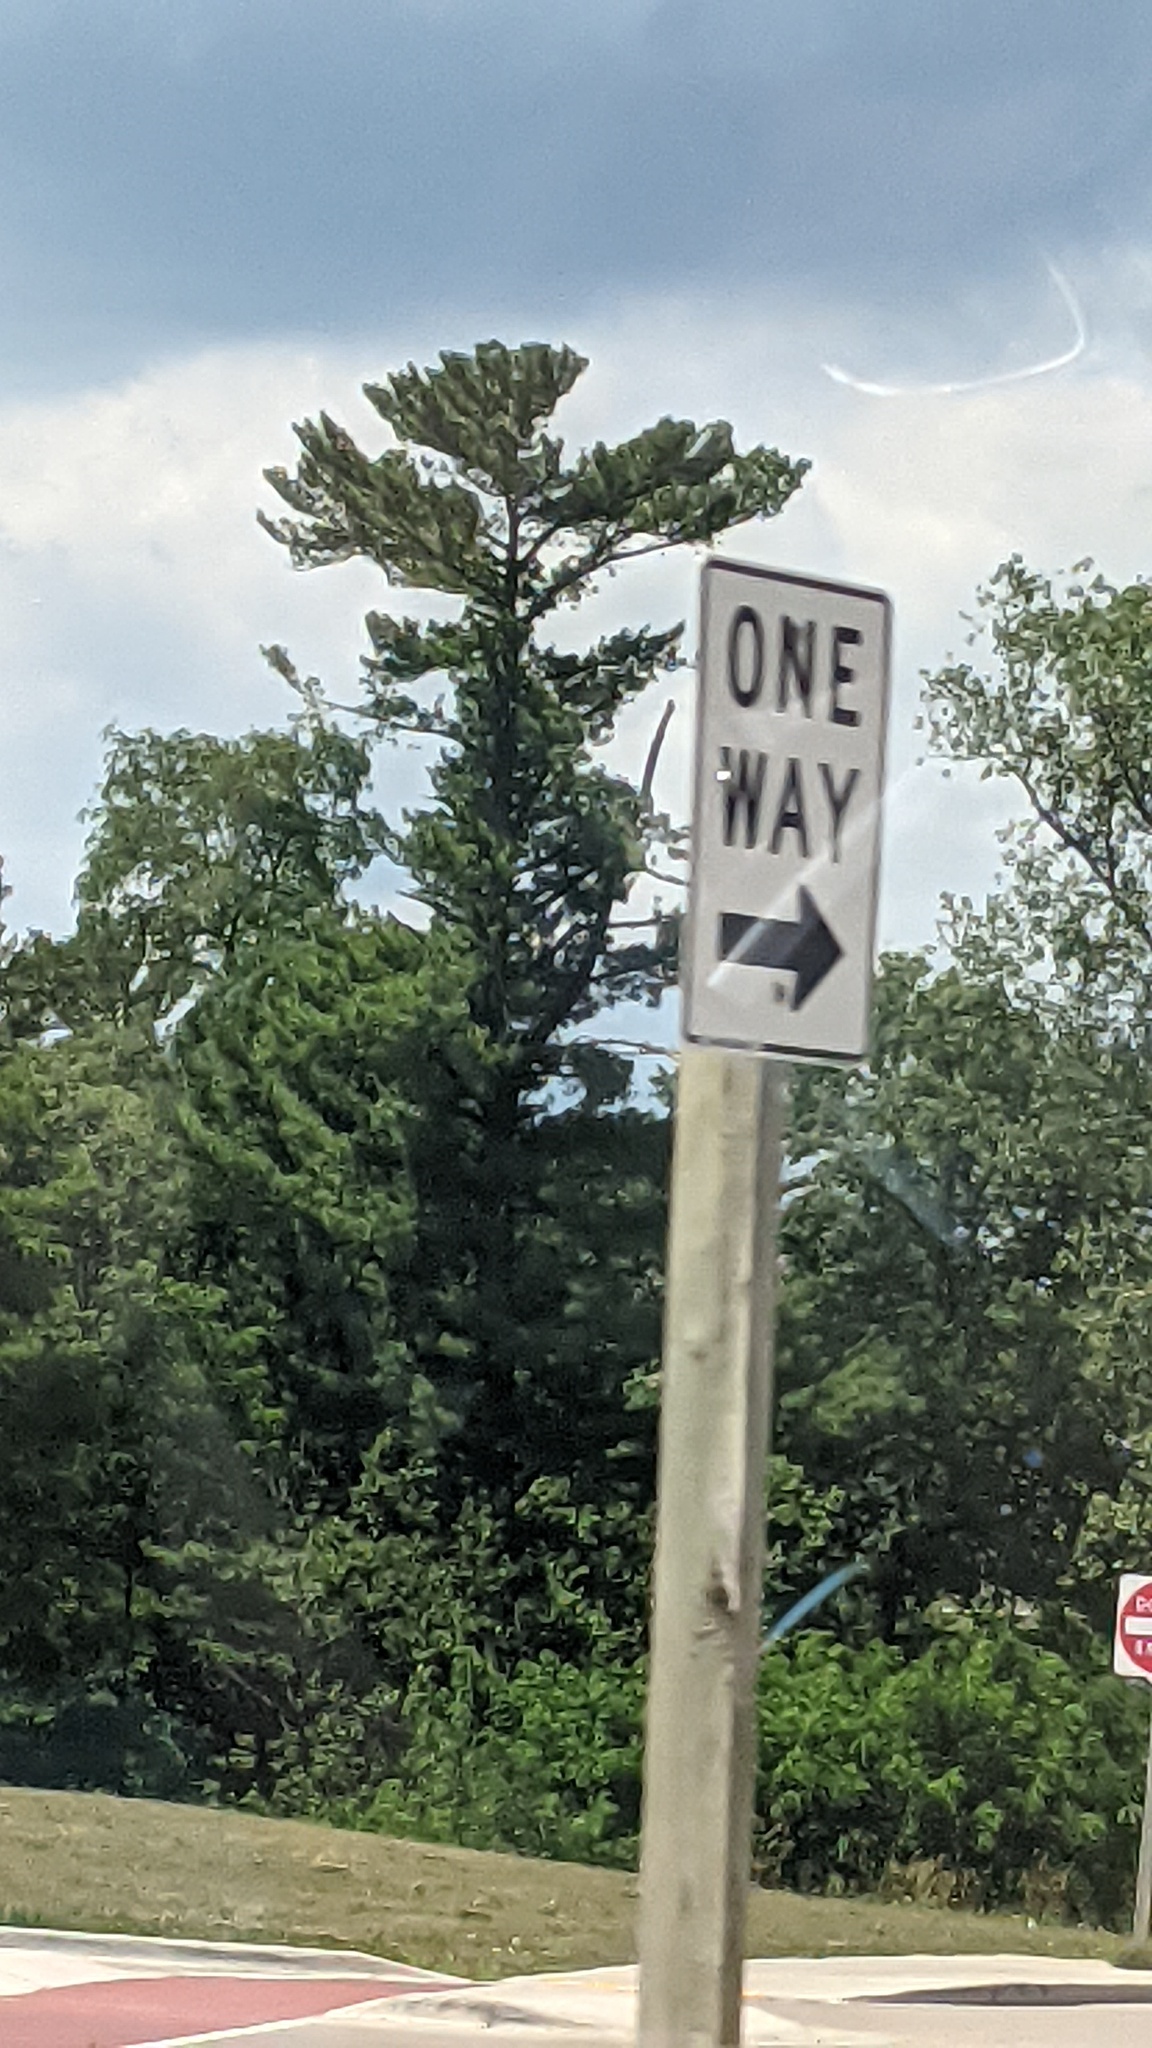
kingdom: Plantae
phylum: Tracheophyta
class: Pinopsida
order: Pinales
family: Pinaceae
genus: Pinus
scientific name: Pinus strobus
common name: Weymouth pine
